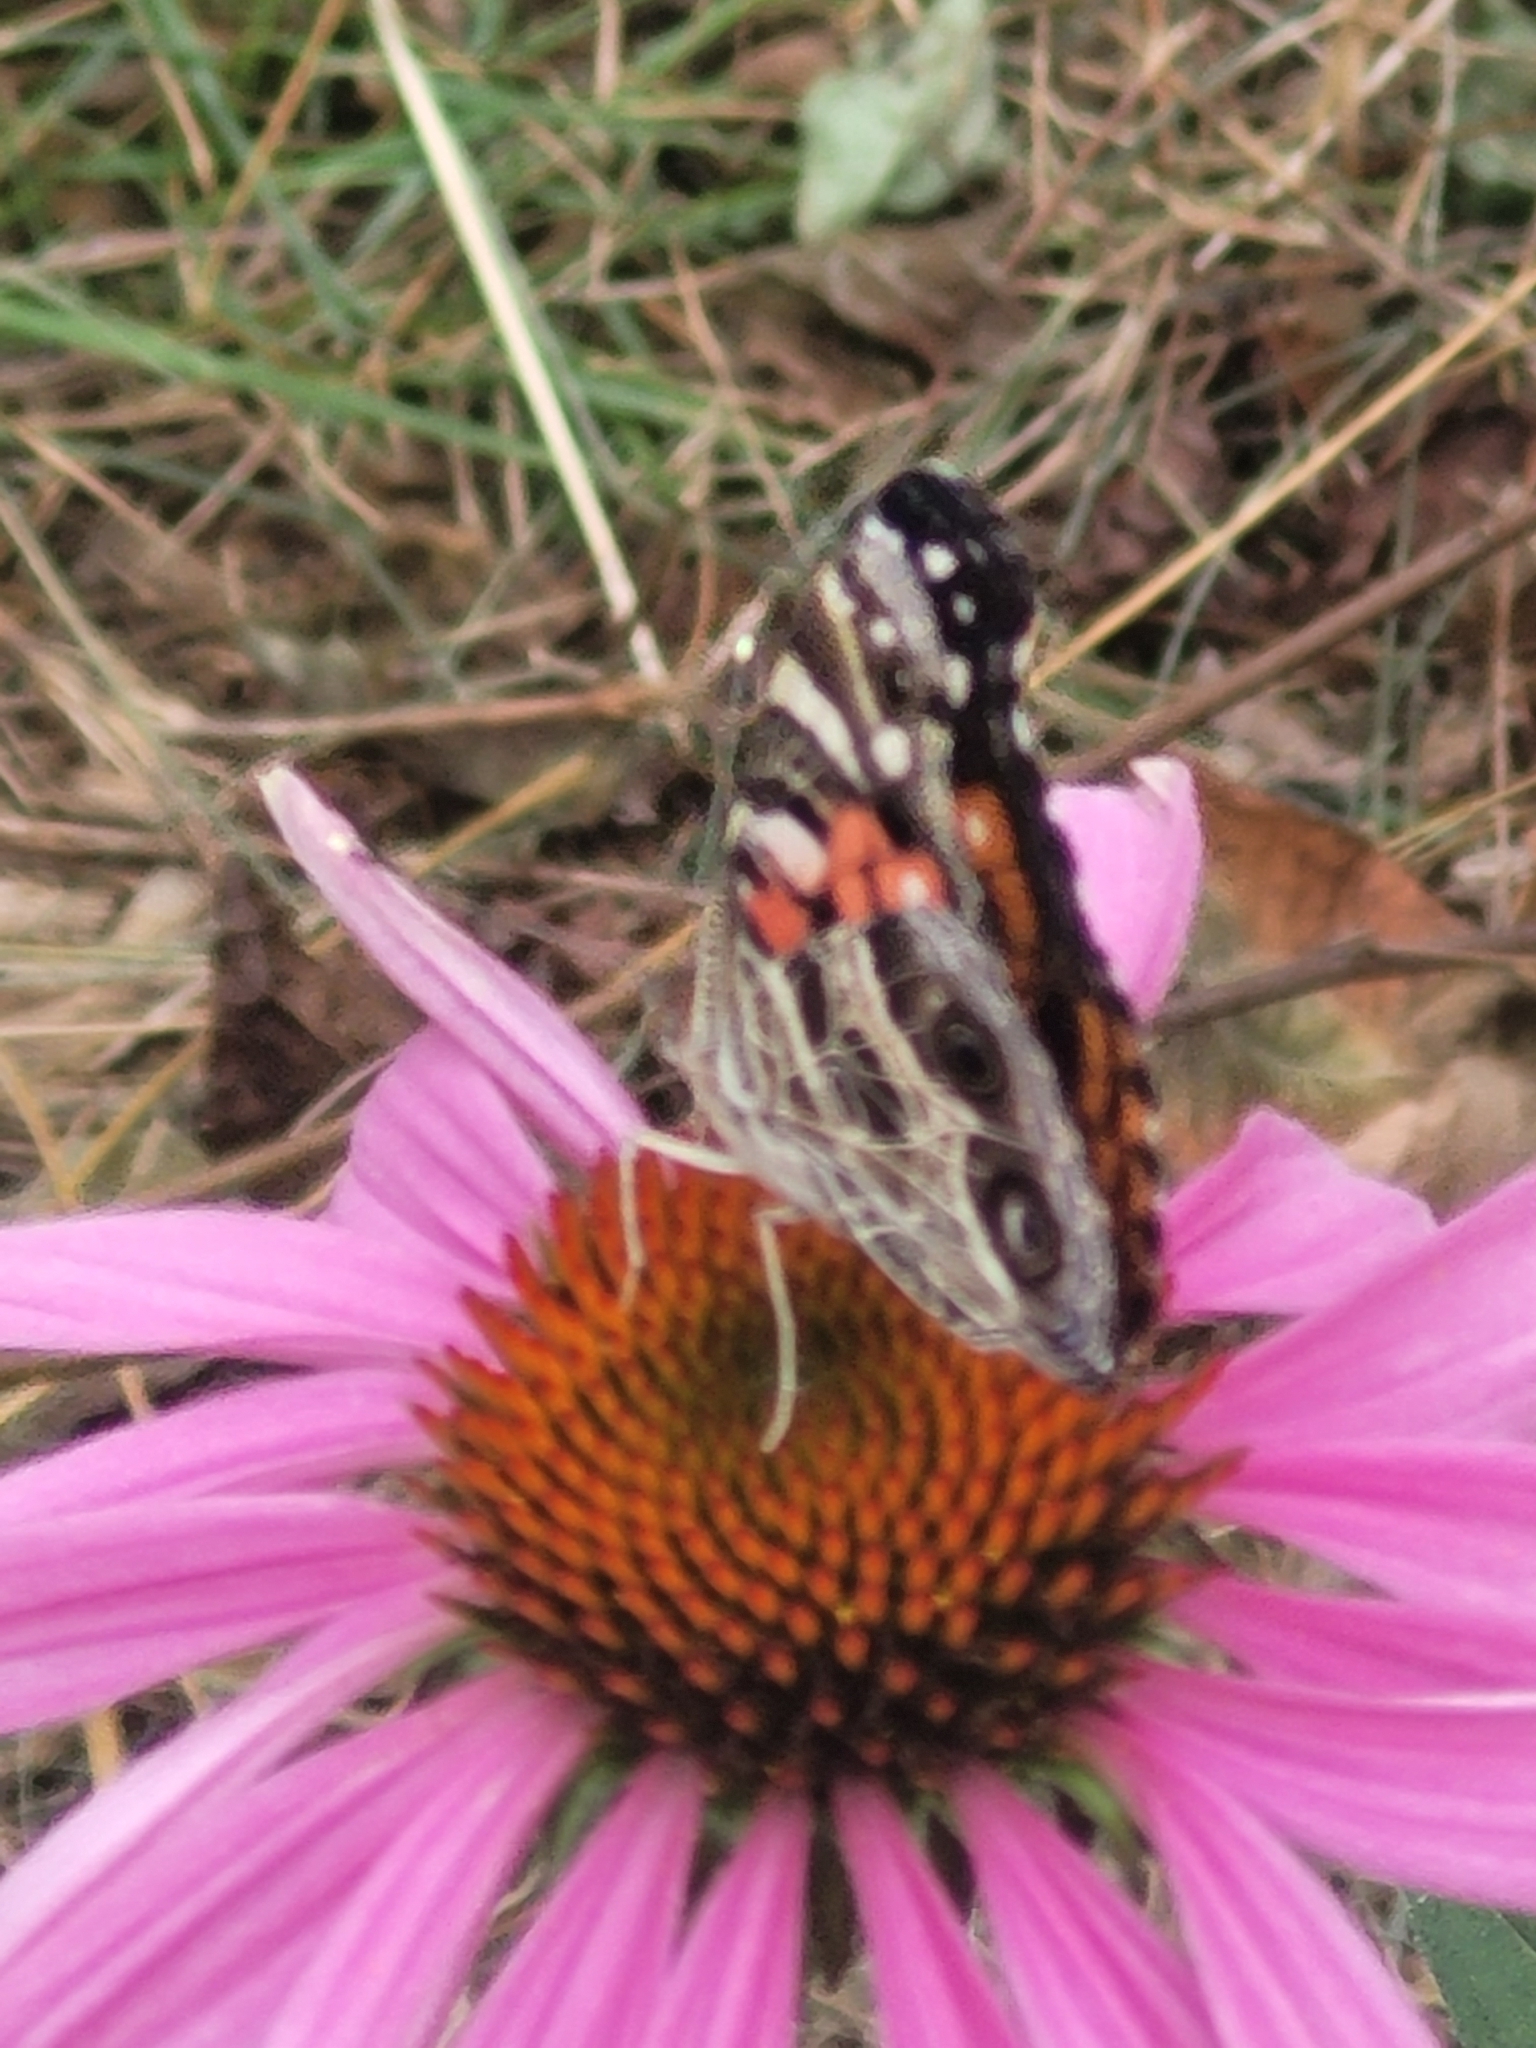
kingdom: Animalia
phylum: Arthropoda
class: Insecta
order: Lepidoptera
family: Nymphalidae
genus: Vanessa
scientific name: Vanessa virginiensis
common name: American lady
